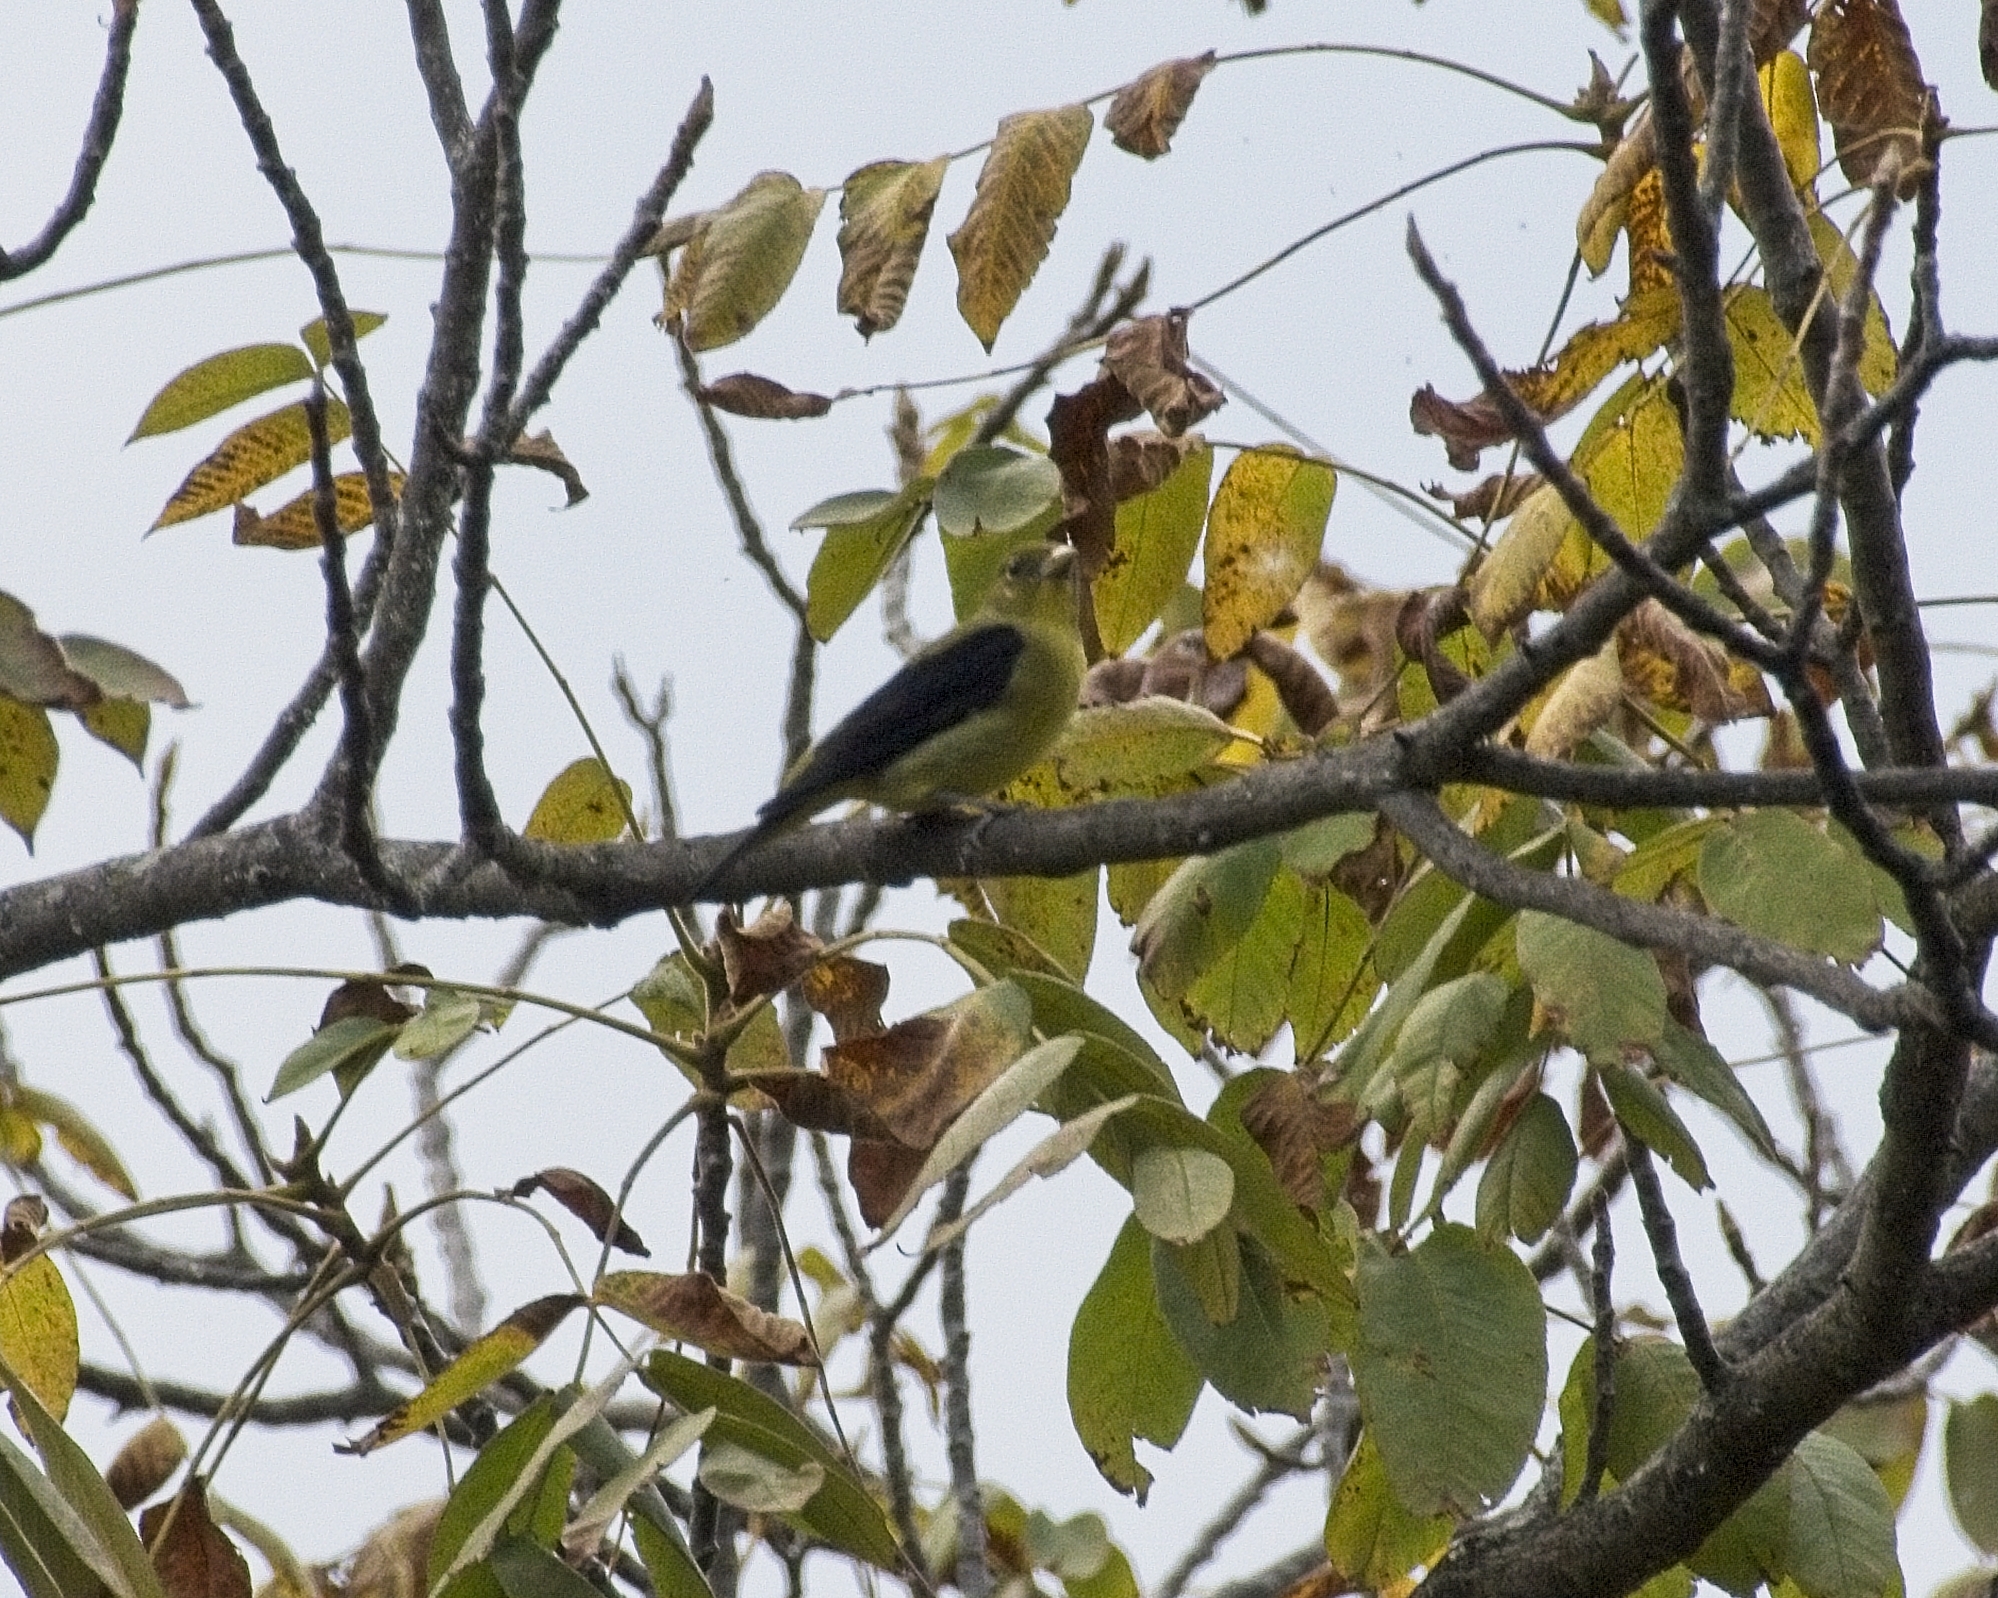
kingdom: Animalia
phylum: Chordata
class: Aves
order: Passeriformes
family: Cardinalidae
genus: Piranga
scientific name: Piranga olivacea
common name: Scarlet tanager
